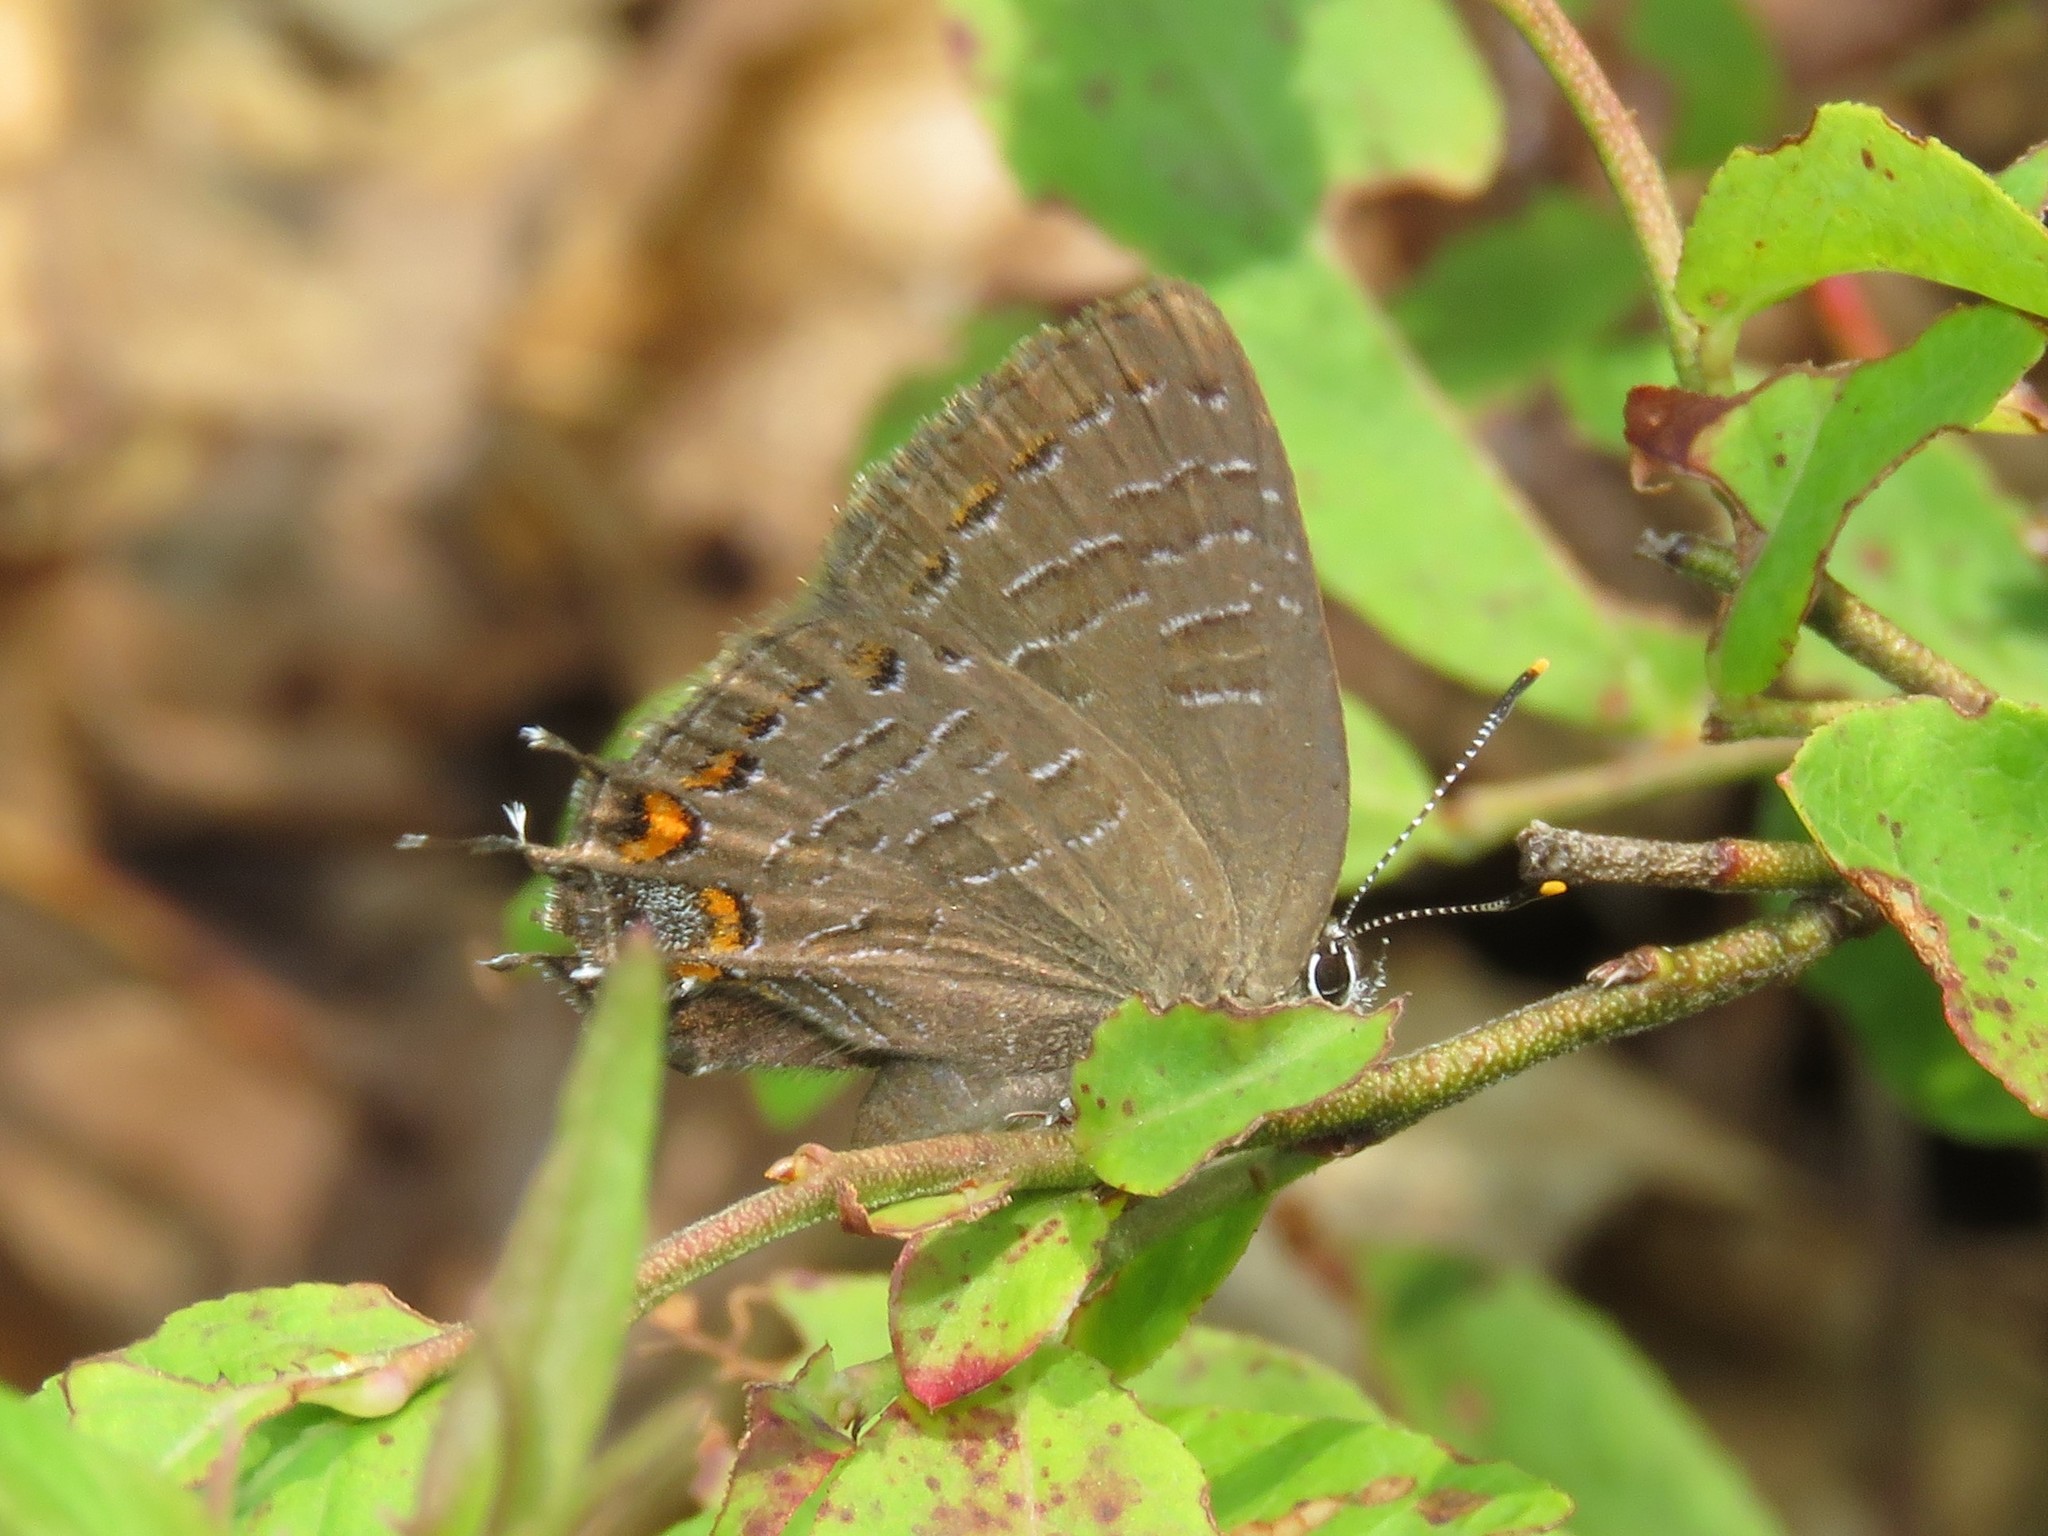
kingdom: Animalia
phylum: Arthropoda
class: Insecta
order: Lepidoptera
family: Lycaenidae
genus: Satyrium
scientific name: Satyrium liparops
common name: Striped hairstreak
